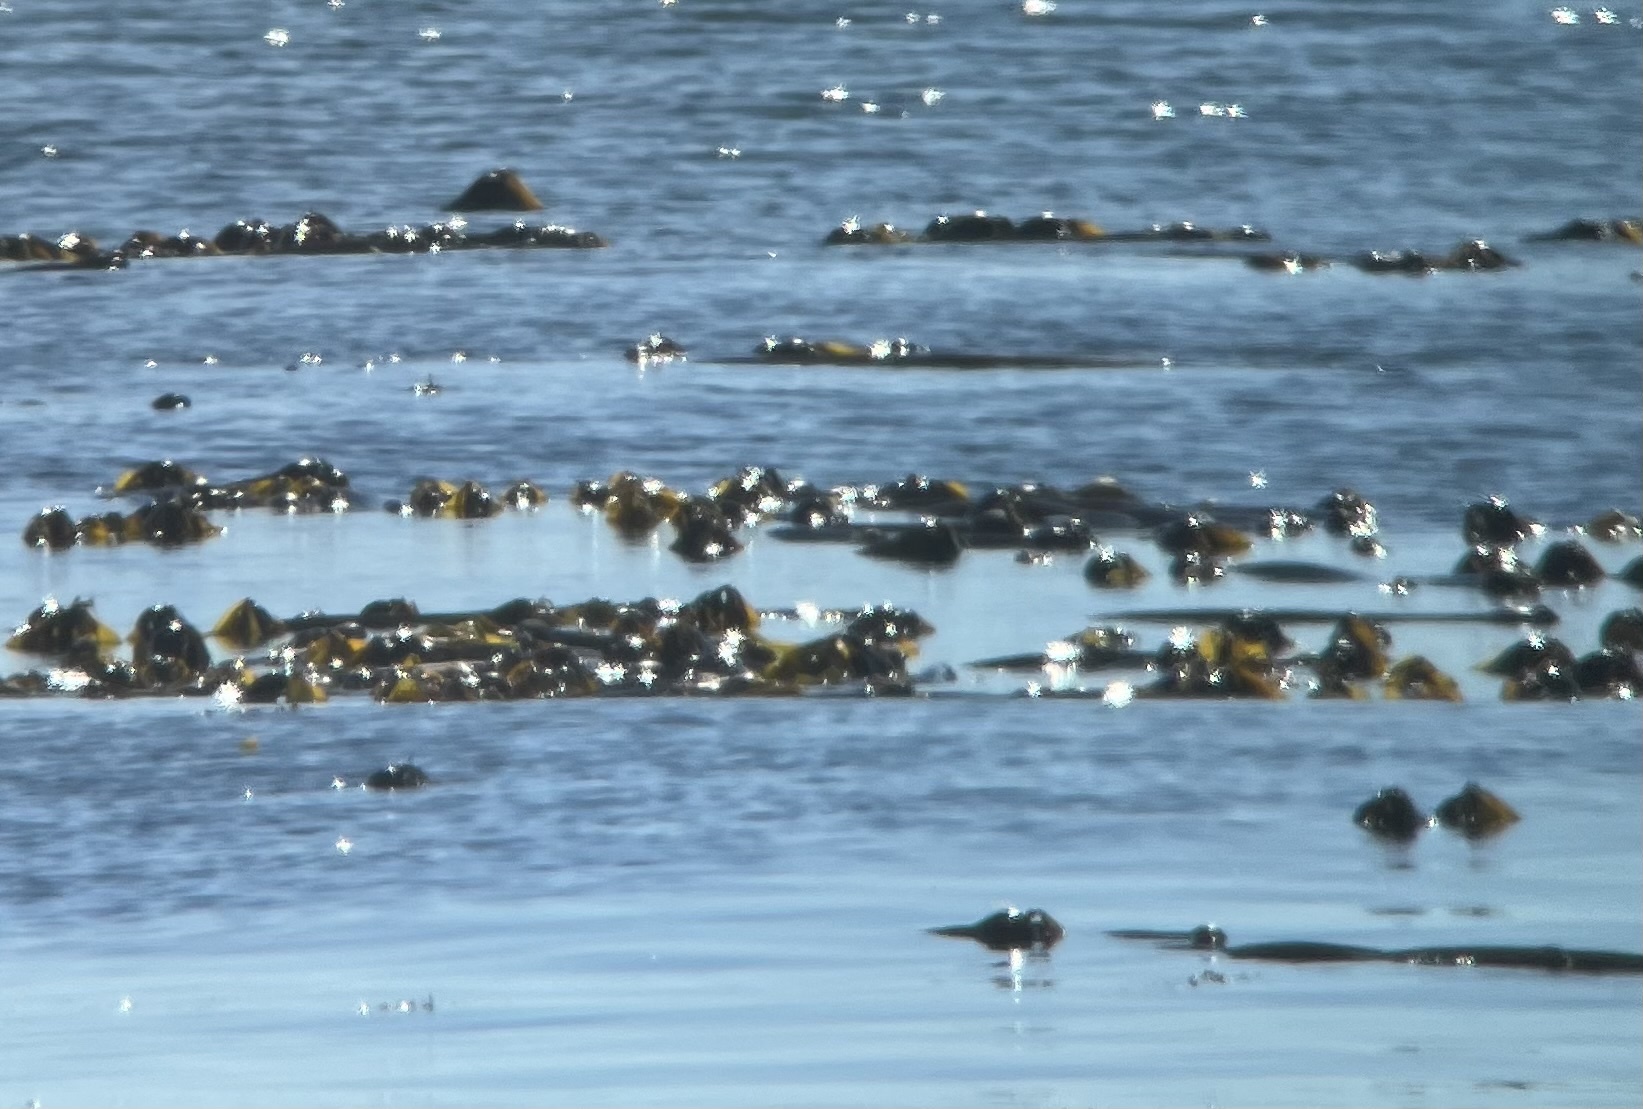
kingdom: Chromista
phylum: Ochrophyta
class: Phaeophyceae
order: Laminariales
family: Laminariaceae
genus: Nereocystis
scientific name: Nereocystis luetkeana
